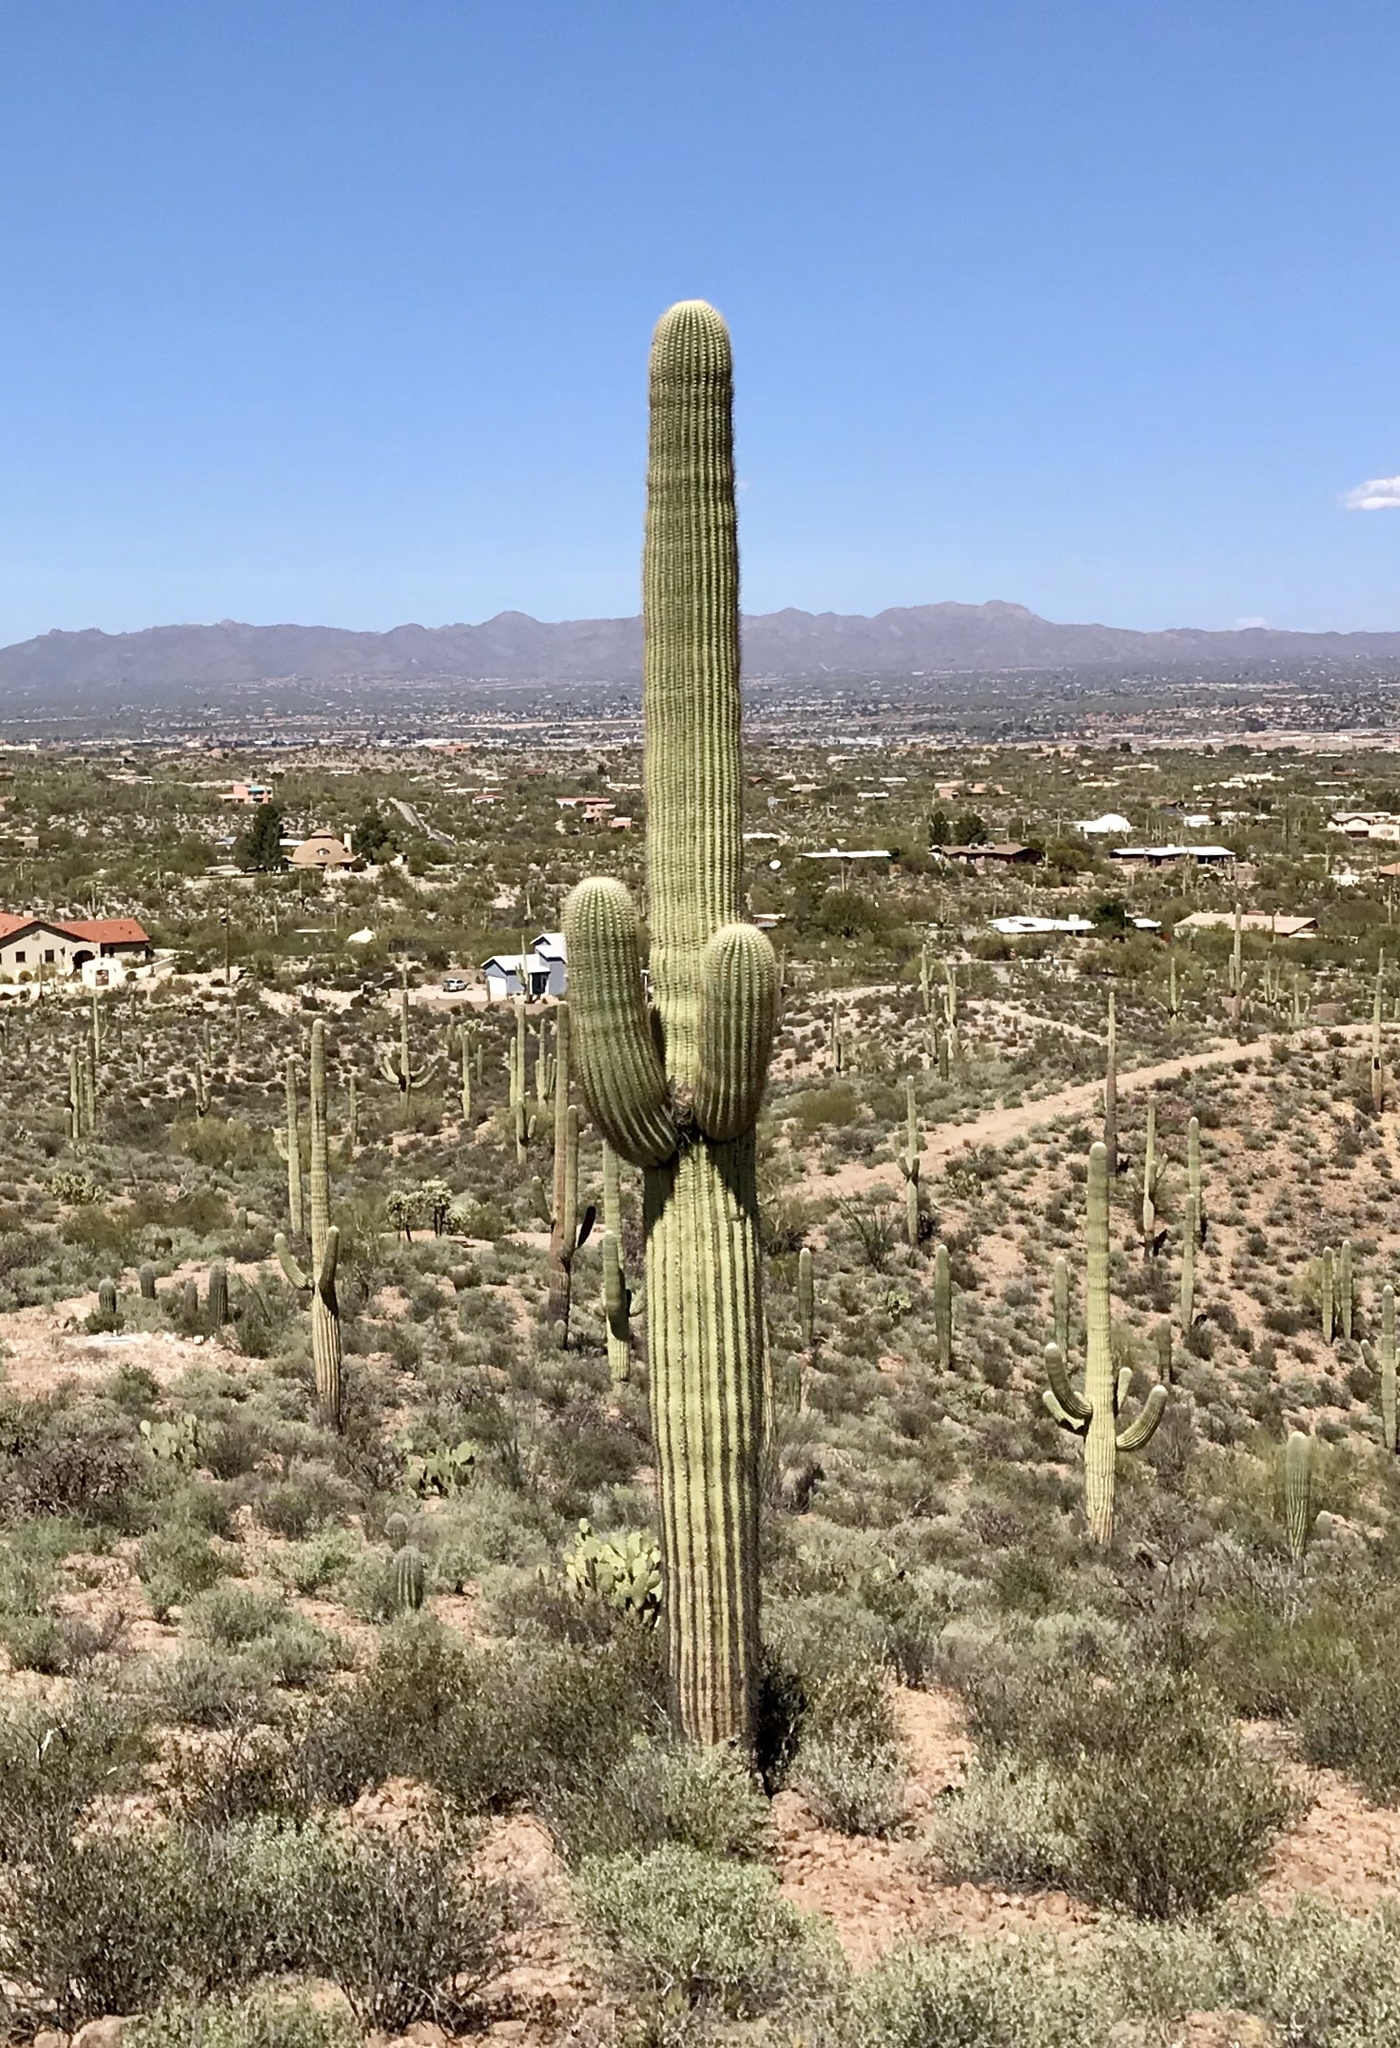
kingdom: Plantae
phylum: Tracheophyta
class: Magnoliopsida
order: Caryophyllales
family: Cactaceae
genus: Carnegiea
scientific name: Carnegiea gigantea
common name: Saguaro
